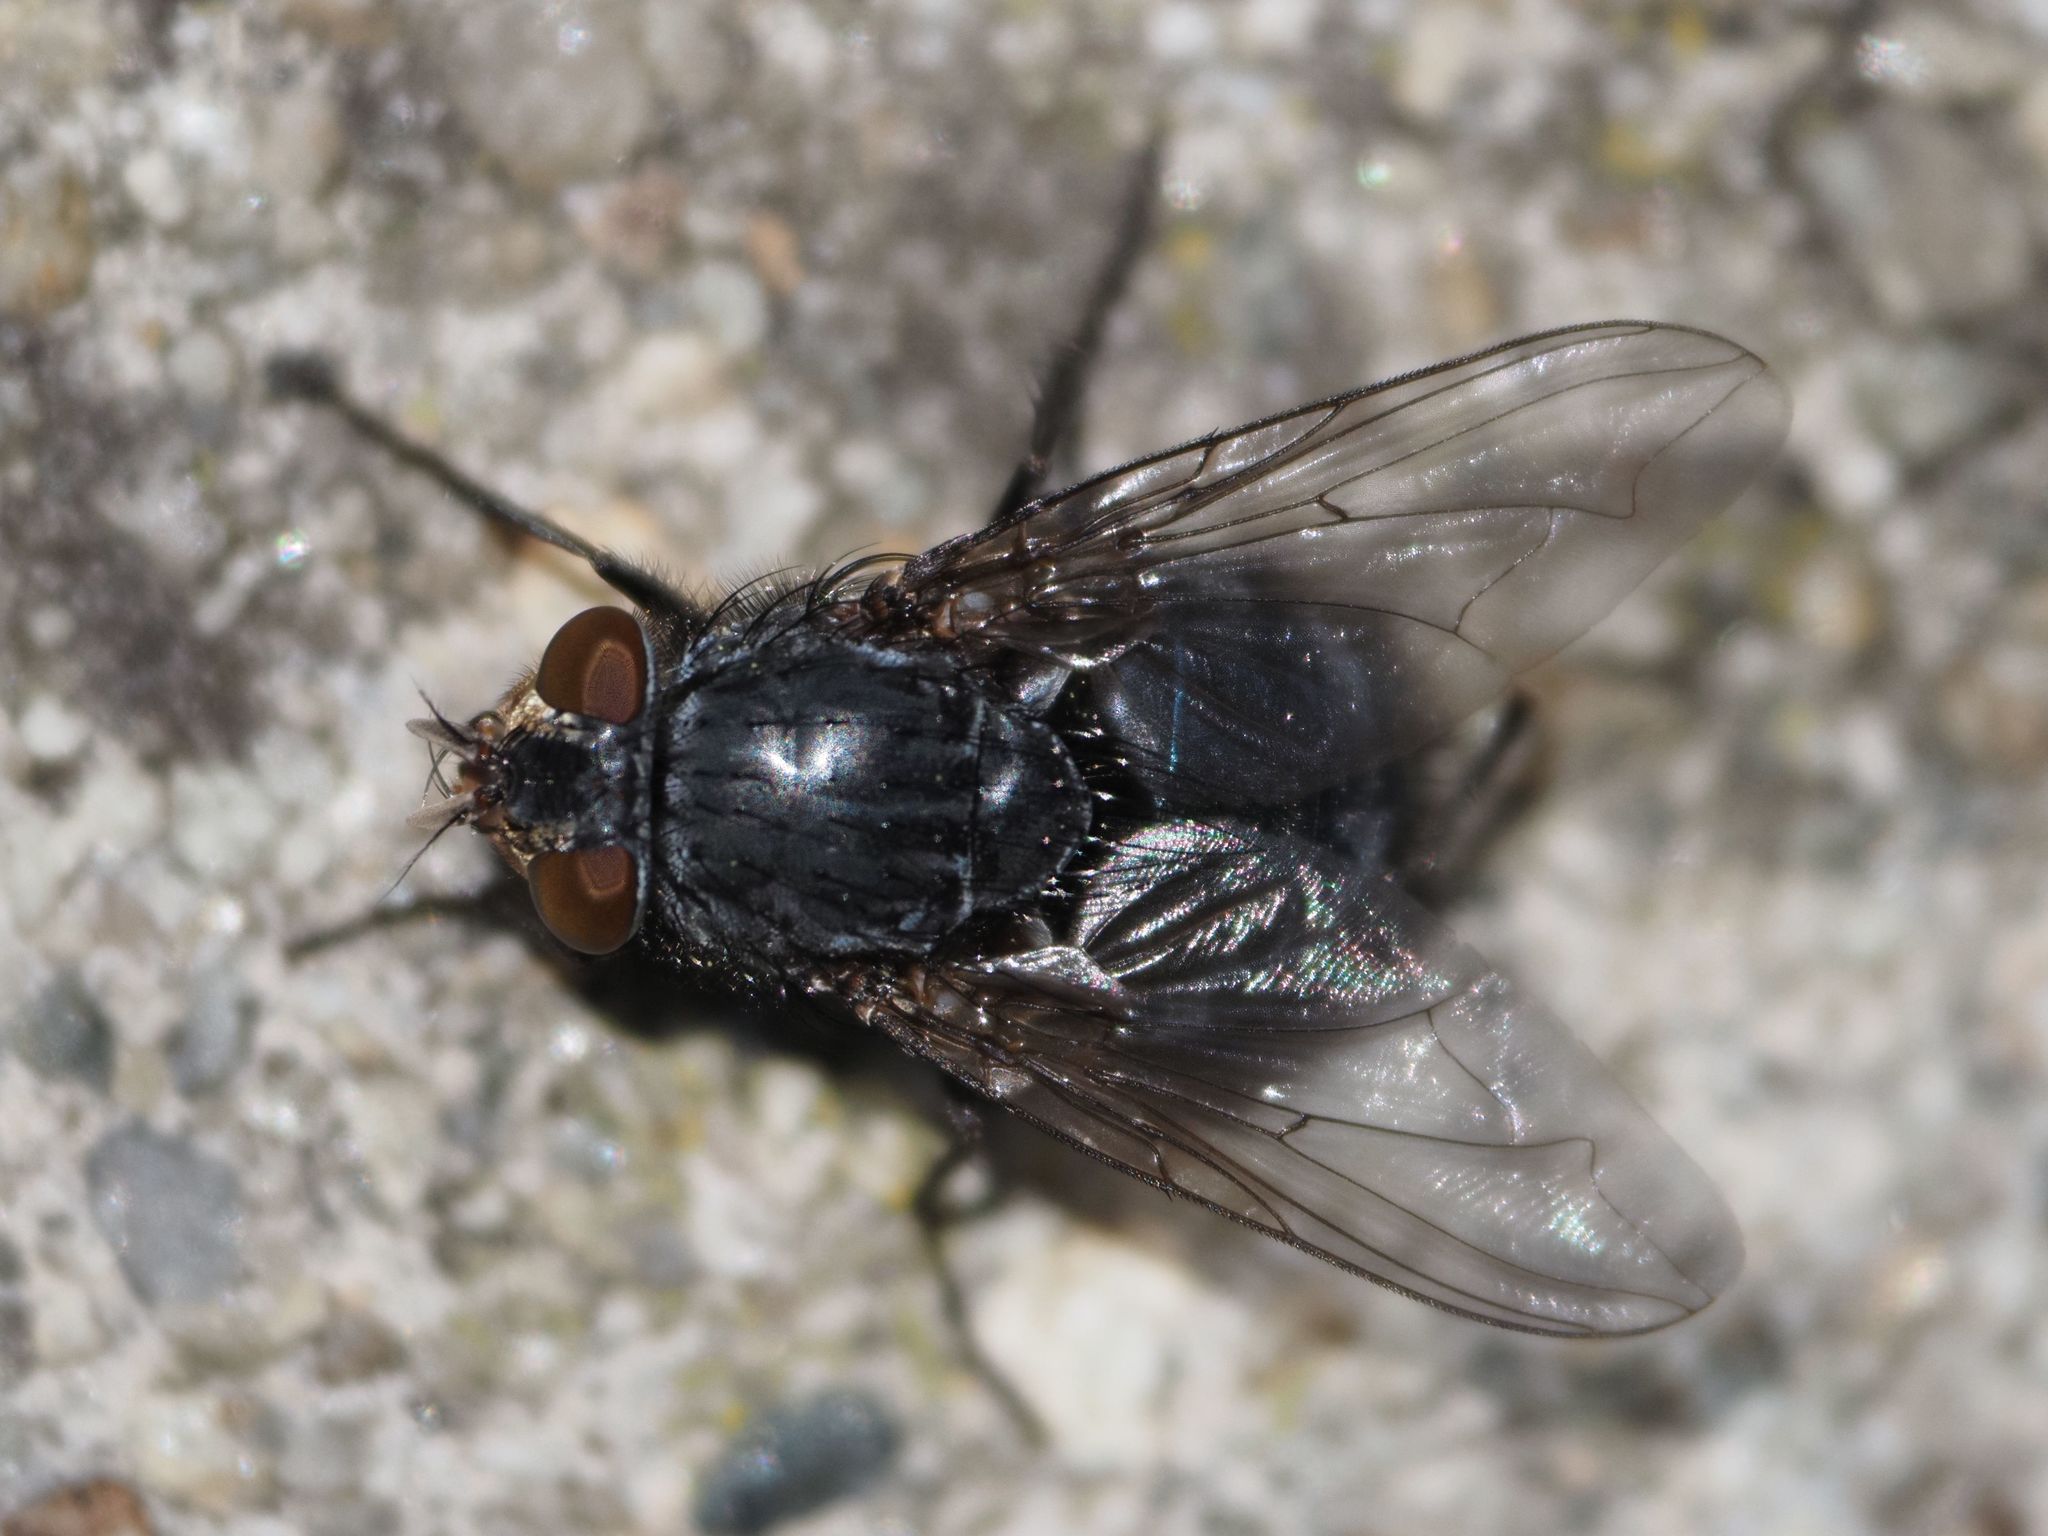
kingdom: Animalia
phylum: Arthropoda
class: Insecta
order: Diptera
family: Calliphoridae
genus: Calliphora
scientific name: Calliphora vicina
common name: Common blow flie
